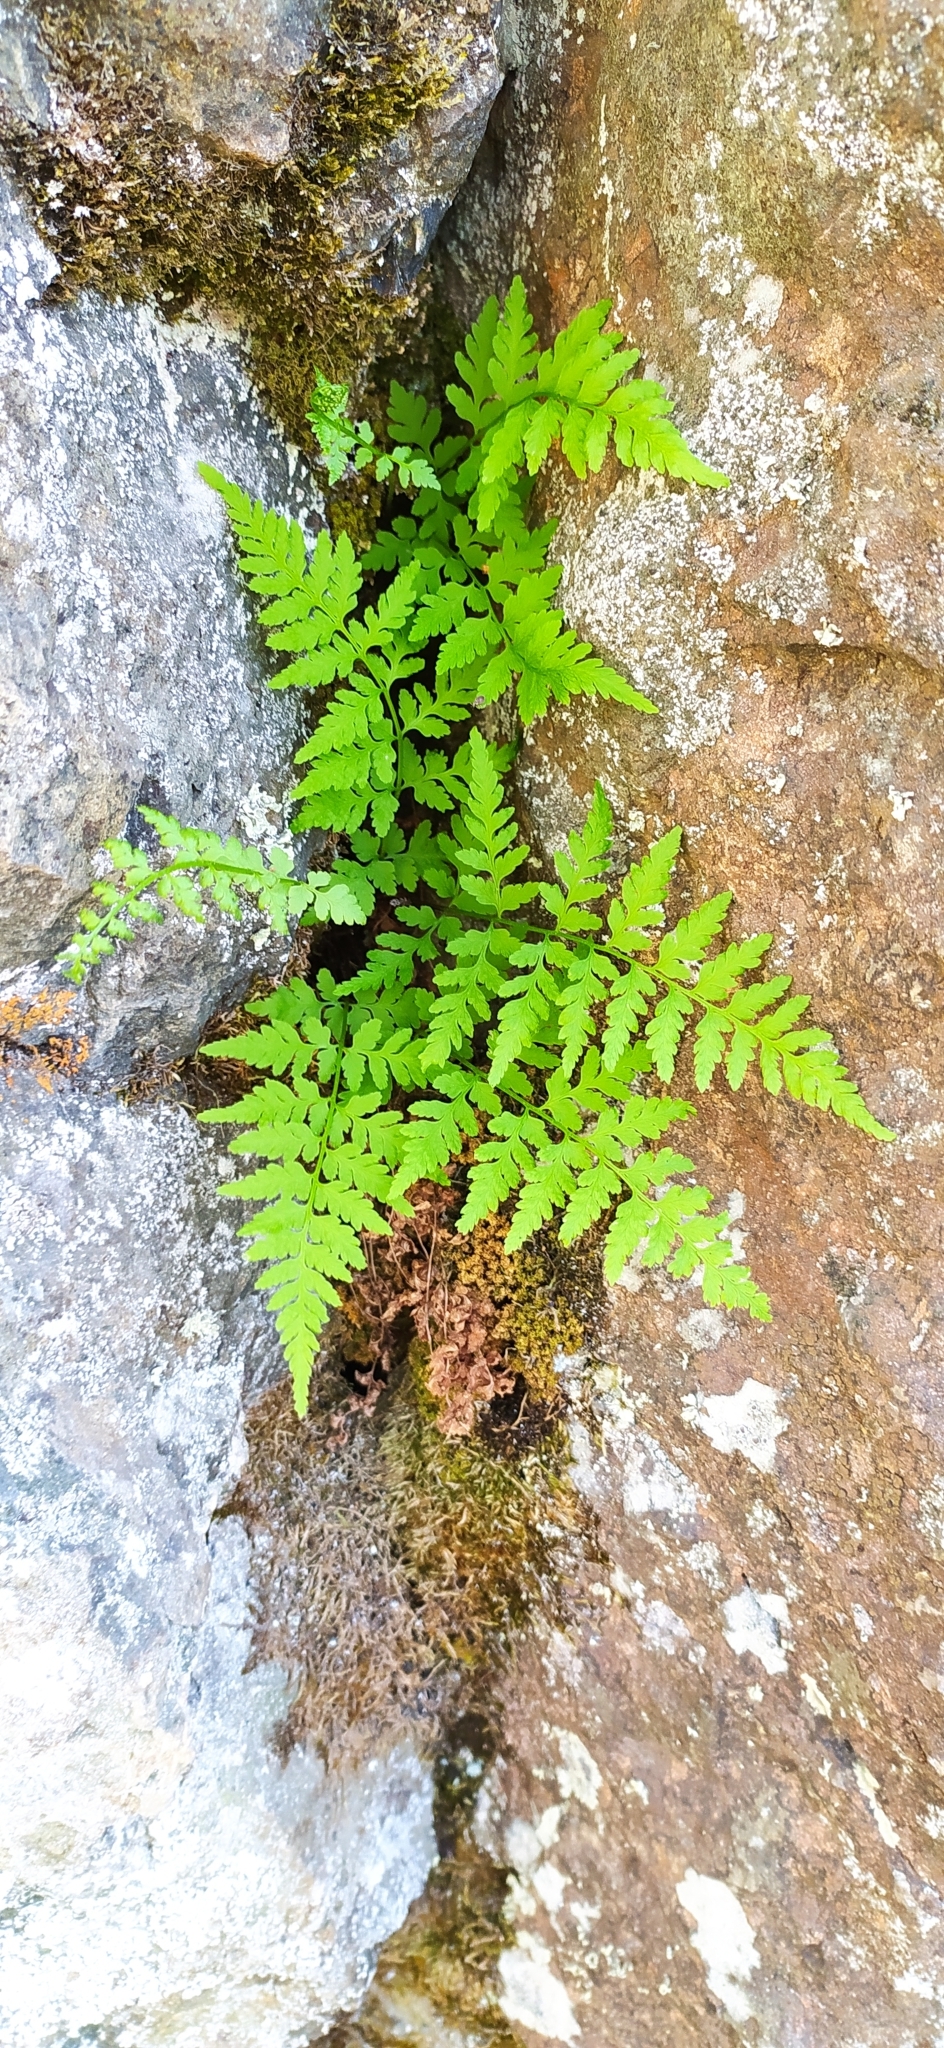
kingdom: Plantae
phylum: Tracheophyta
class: Polypodiopsida
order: Polypodiales
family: Cystopteridaceae
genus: Cystopteris
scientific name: Cystopteris fragilis
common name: Brittle bladder fern
